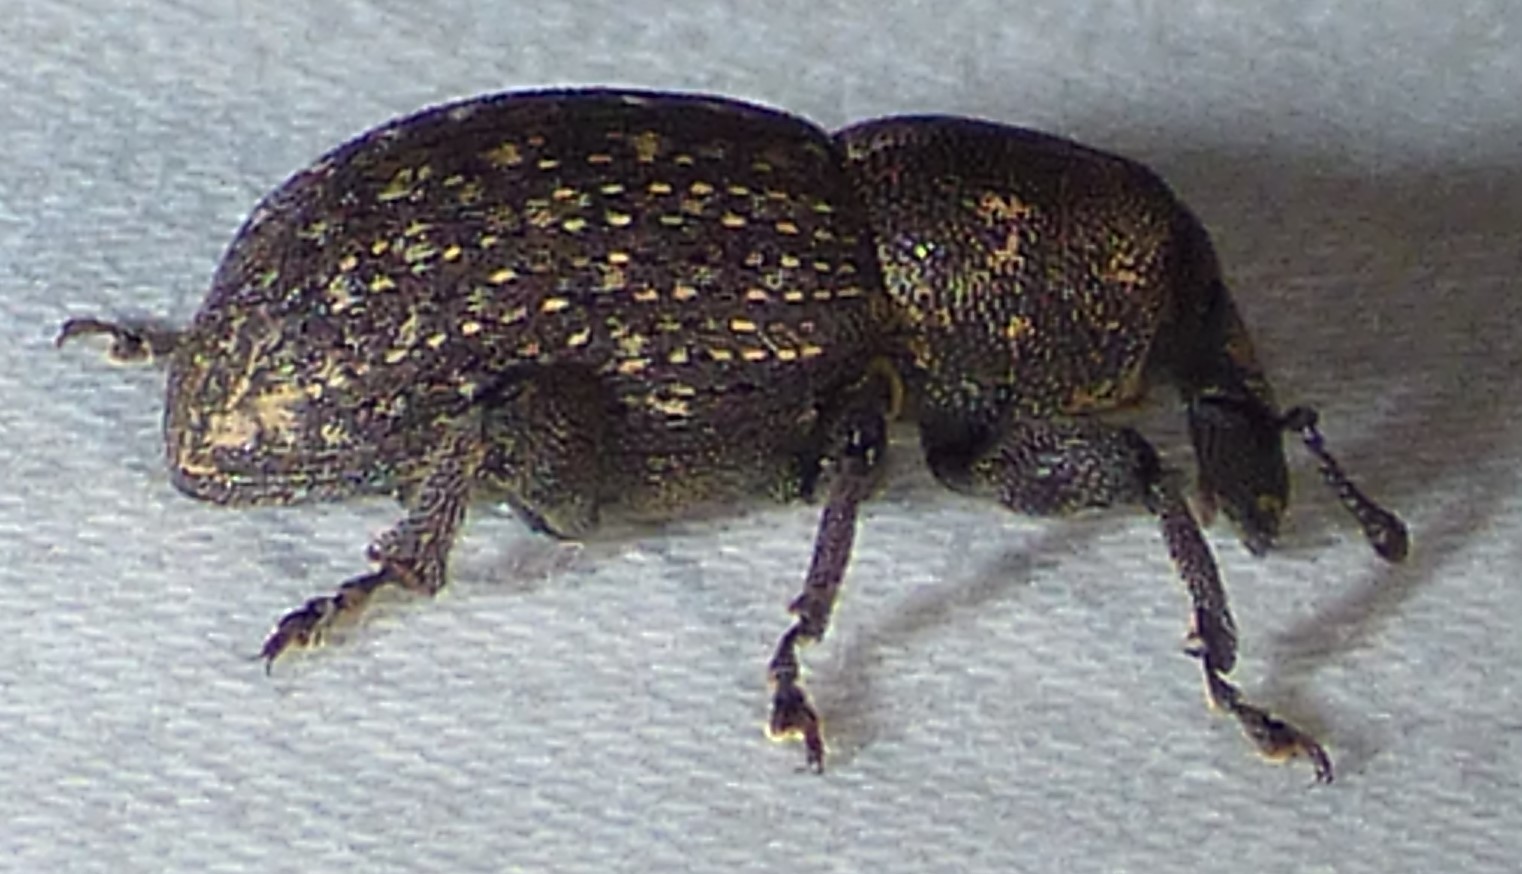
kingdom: Animalia
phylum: Arthropoda
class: Insecta
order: Coleoptera
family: Curculionidae
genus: Pachylobius
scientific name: Pachylobius picivorus
